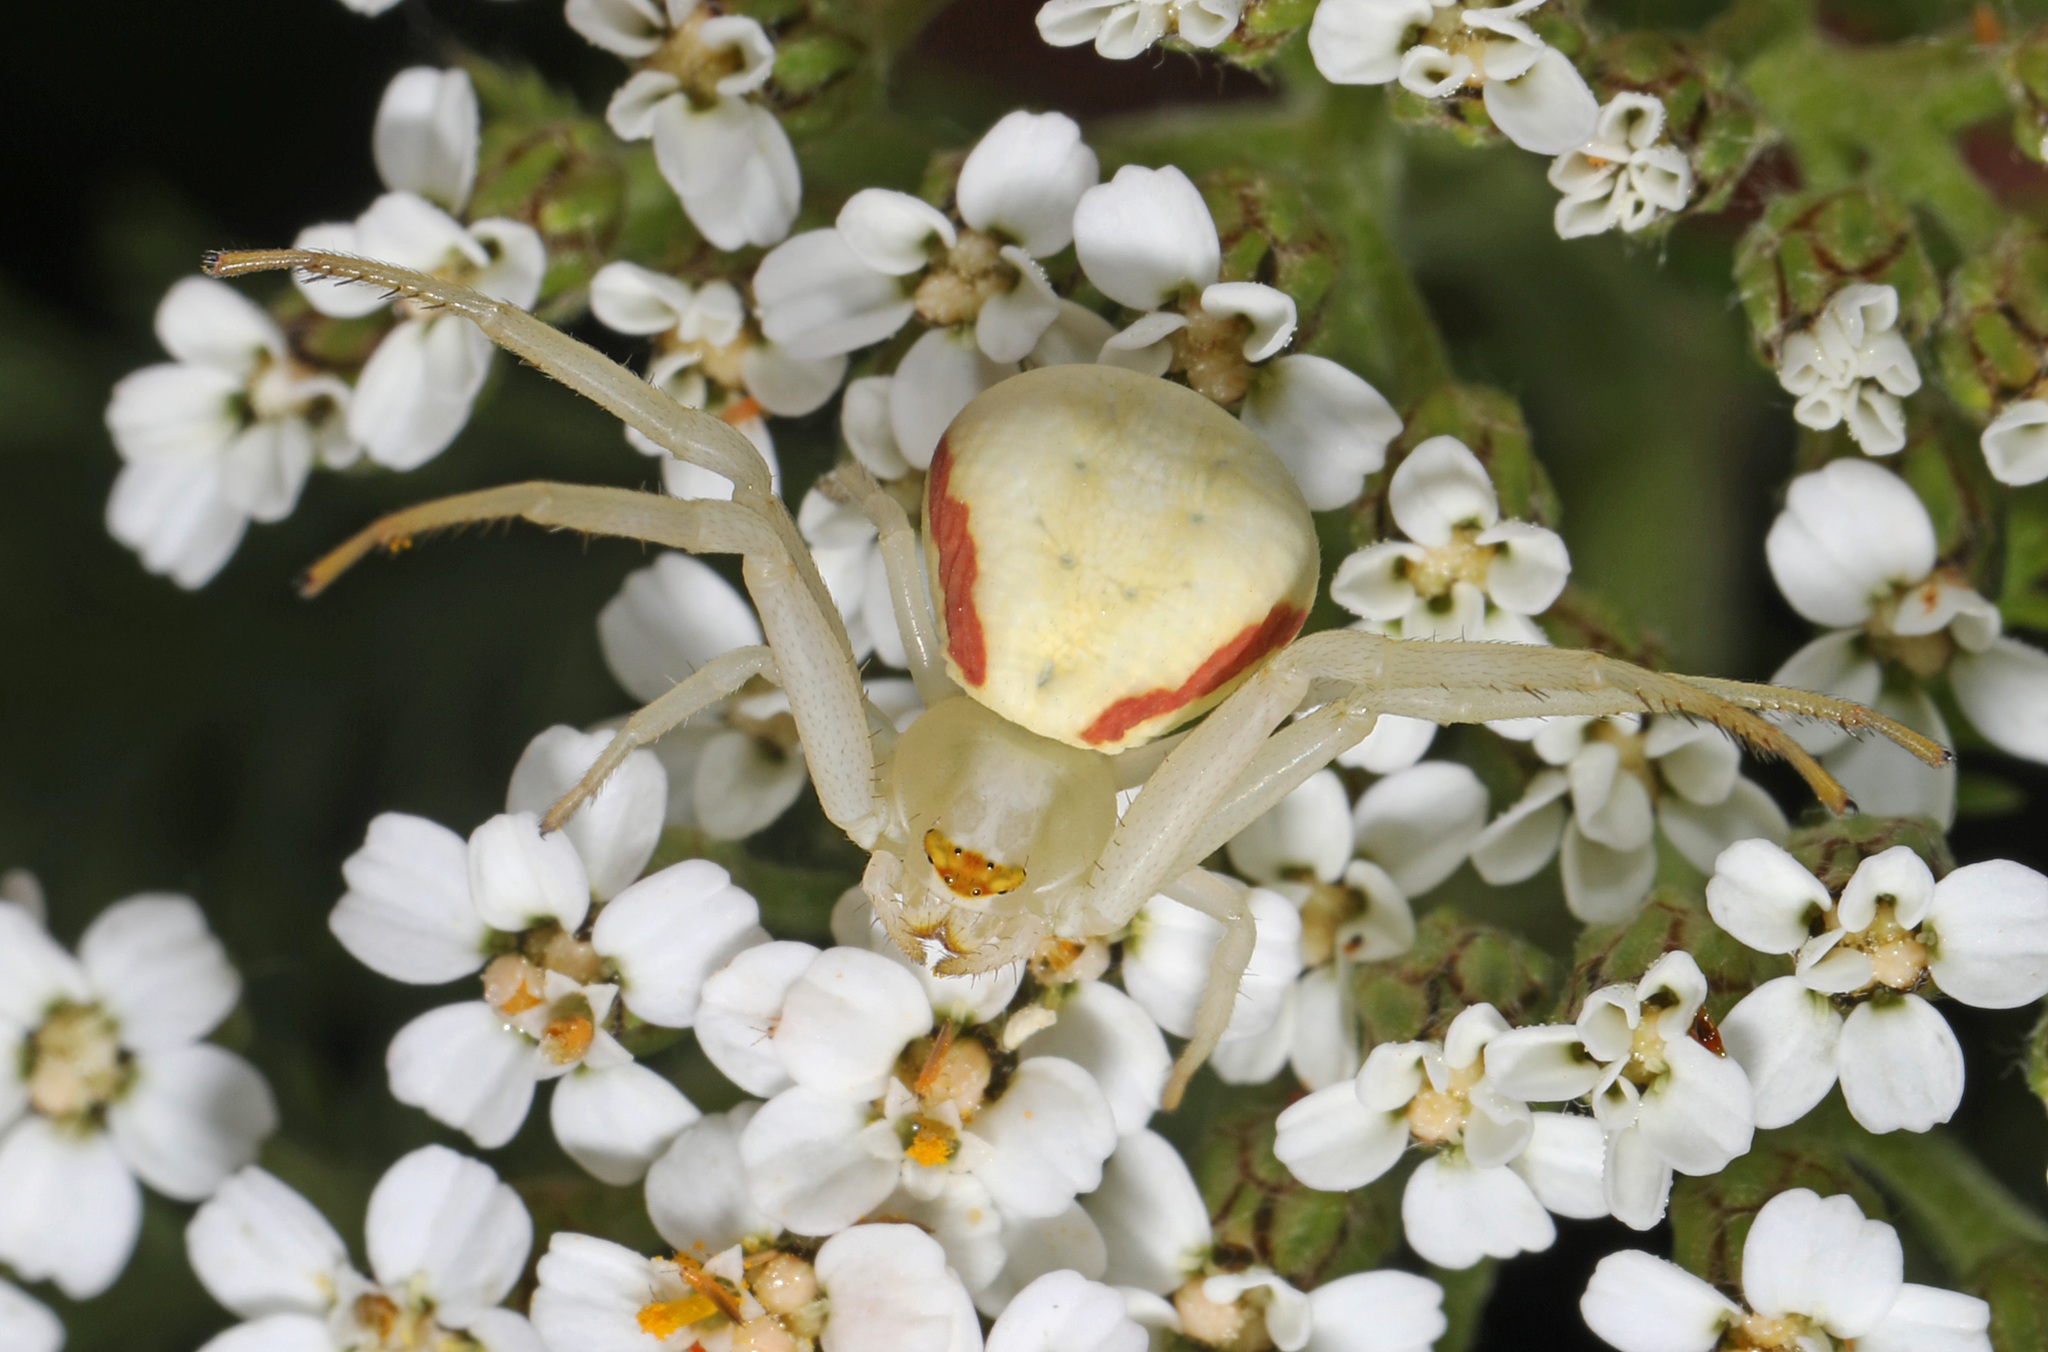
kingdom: Animalia
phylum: Arthropoda
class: Arachnida
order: Araneae
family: Thomisidae
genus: Misumena
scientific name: Misumena vatia
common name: Goldenrod crab spider
